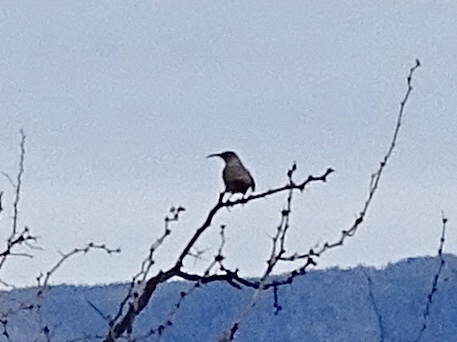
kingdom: Animalia
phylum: Chordata
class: Aves
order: Passeriformes
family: Mimidae
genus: Toxostoma
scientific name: Toxostoma crissale
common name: Crissal thrasher
